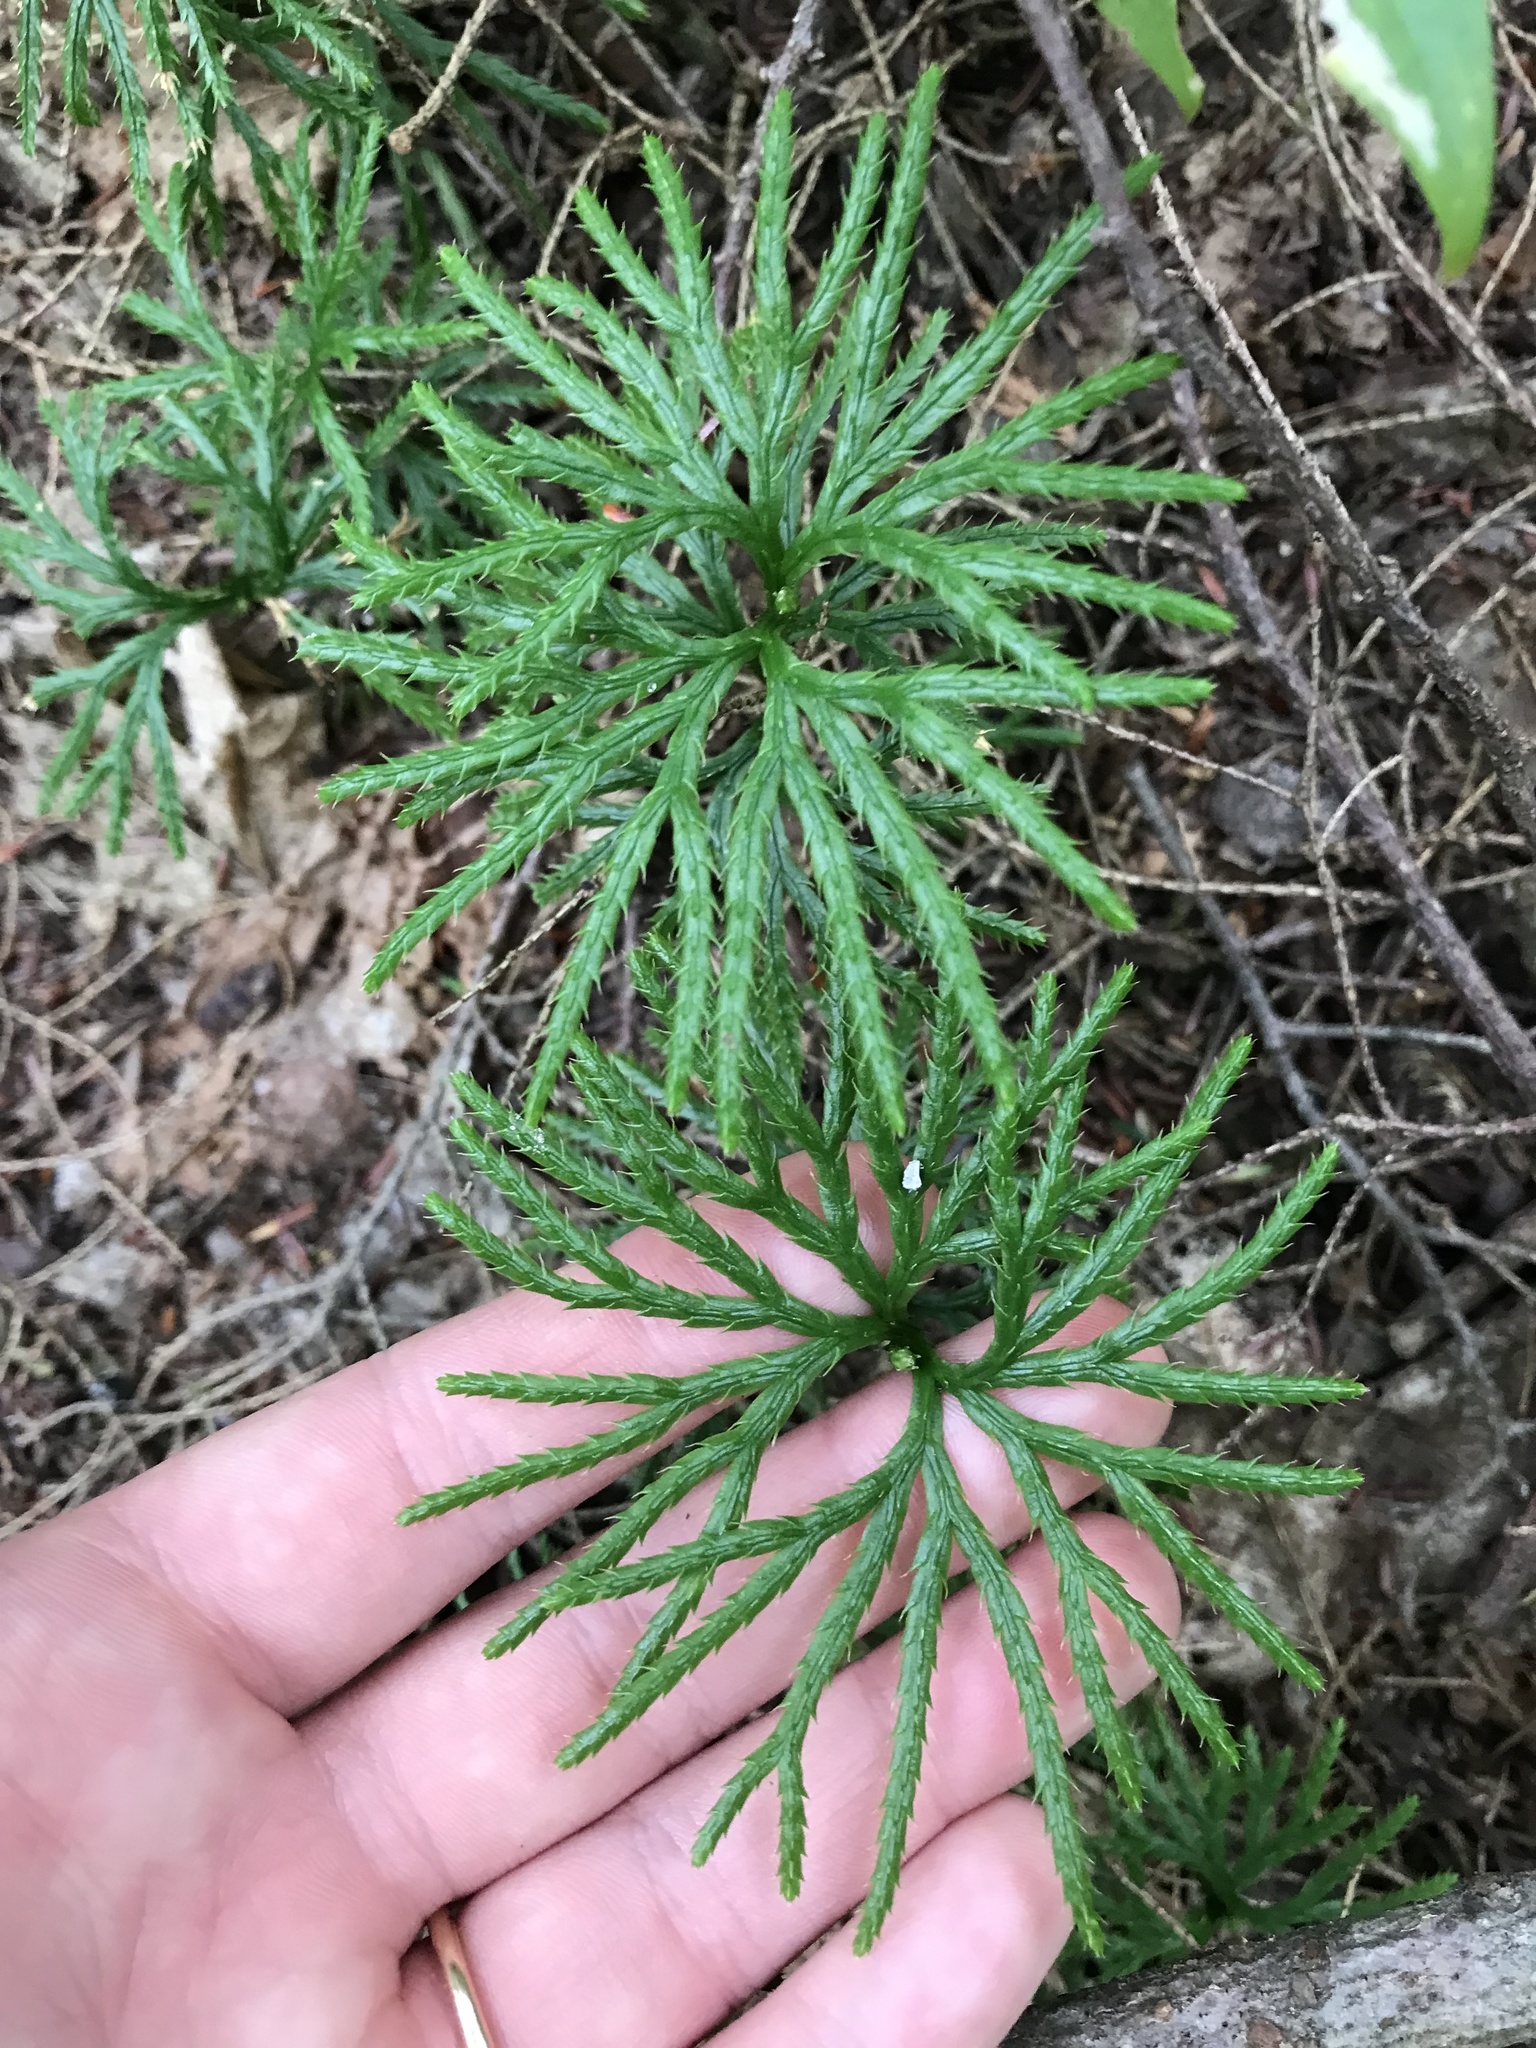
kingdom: Plantae
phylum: Tracheophyta
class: Lycopodiopsida
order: Lycopodiales
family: Lycopodiaceae
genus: Diphasiastrum
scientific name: Diphasiastrum digitatum
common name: Southern running-pine
